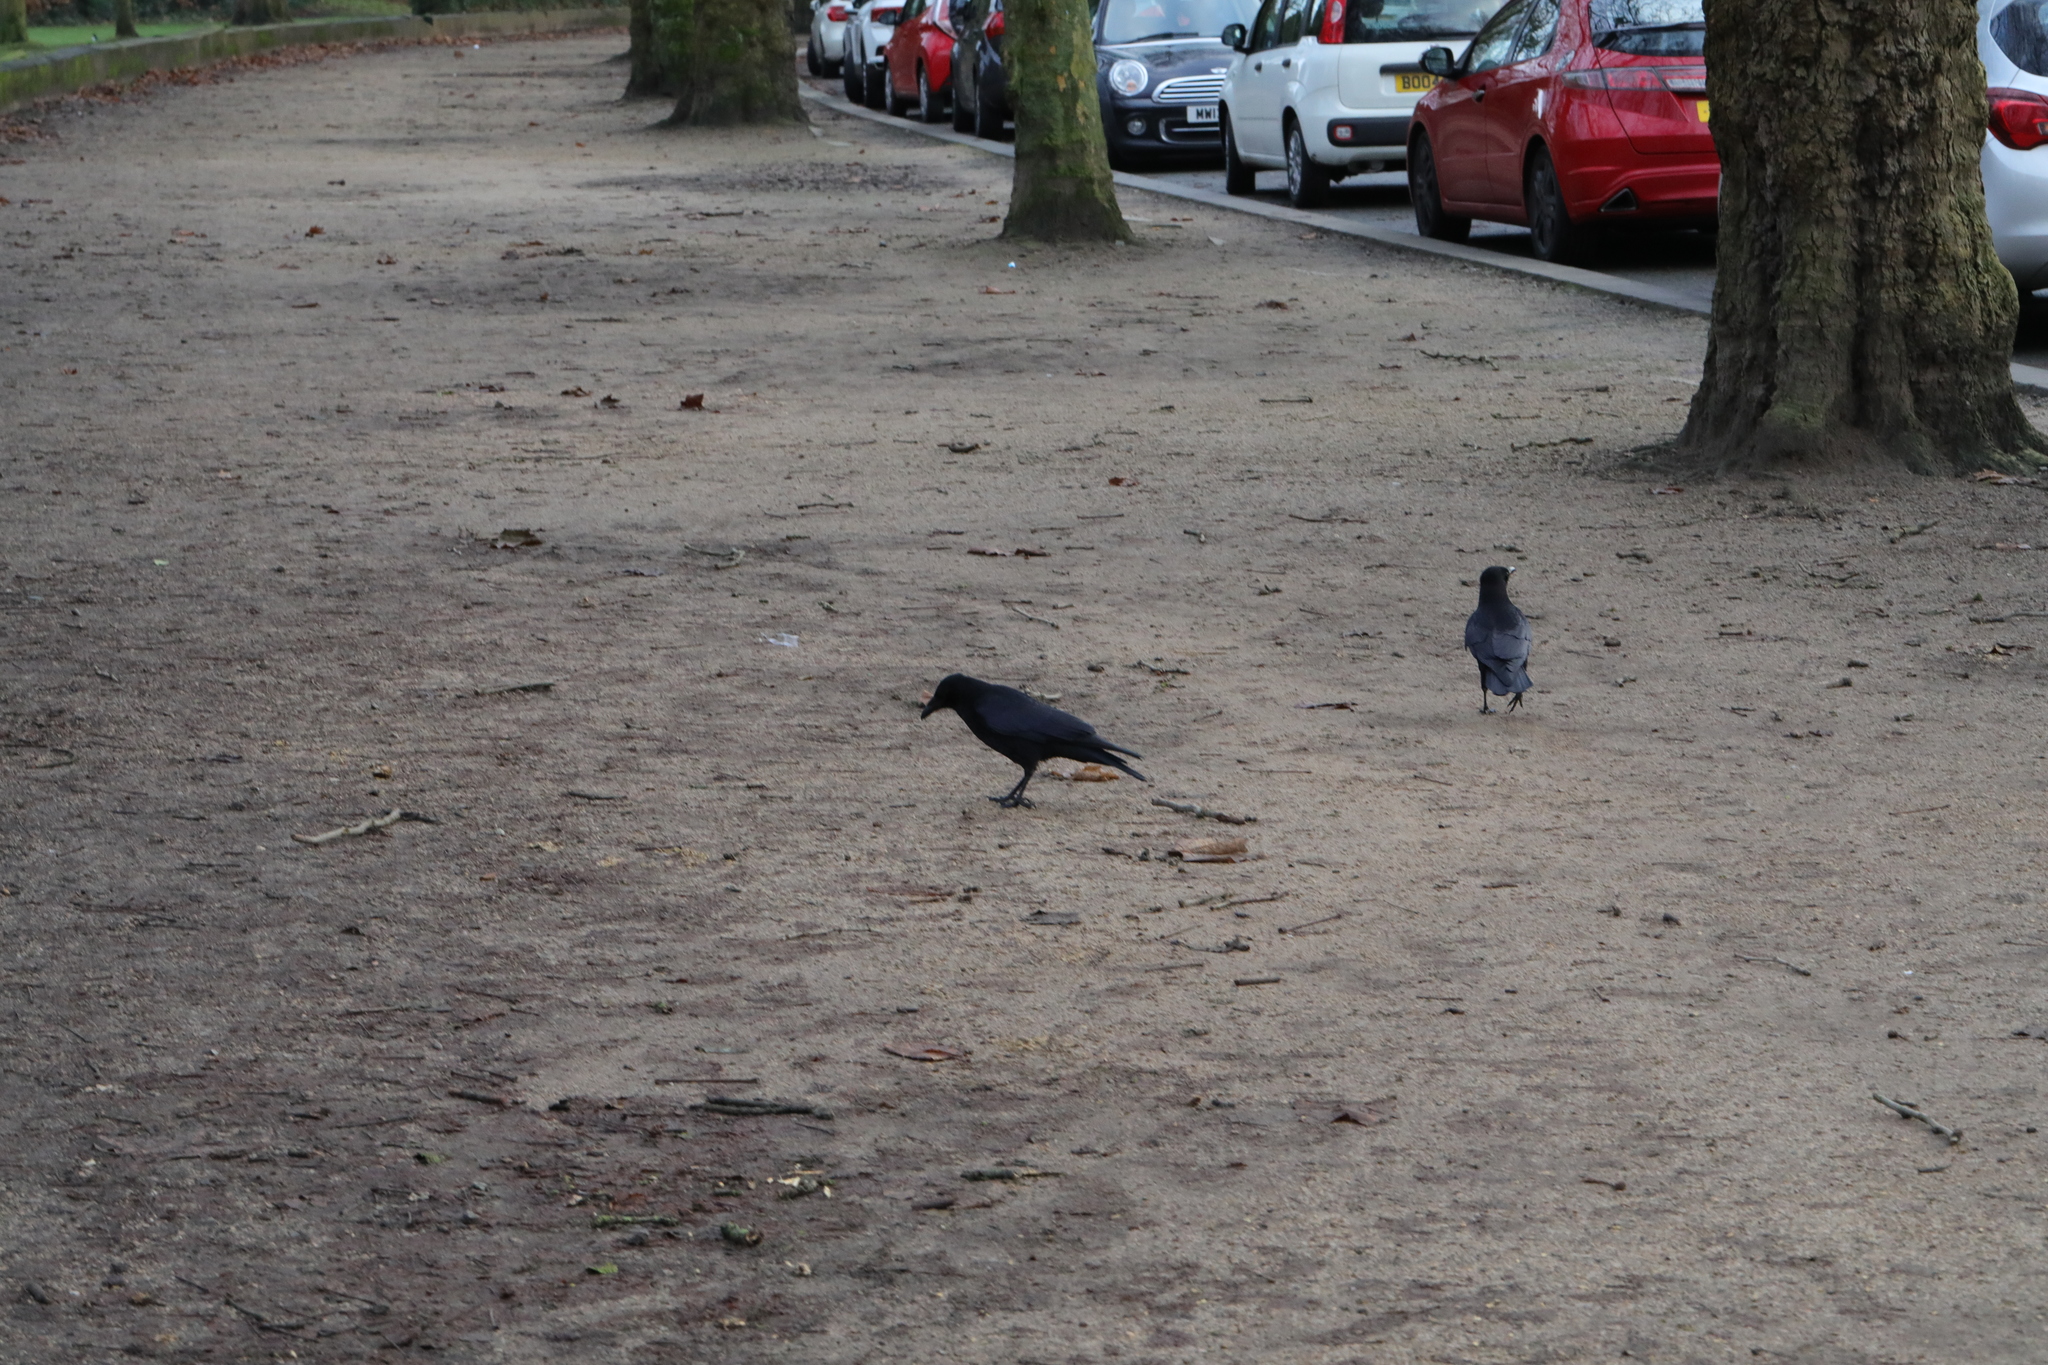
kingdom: Animalia
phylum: Chordata
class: Aves
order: Passeriformes
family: Corvidae
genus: Corvus
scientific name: Corvus corone
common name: Carrion crow
